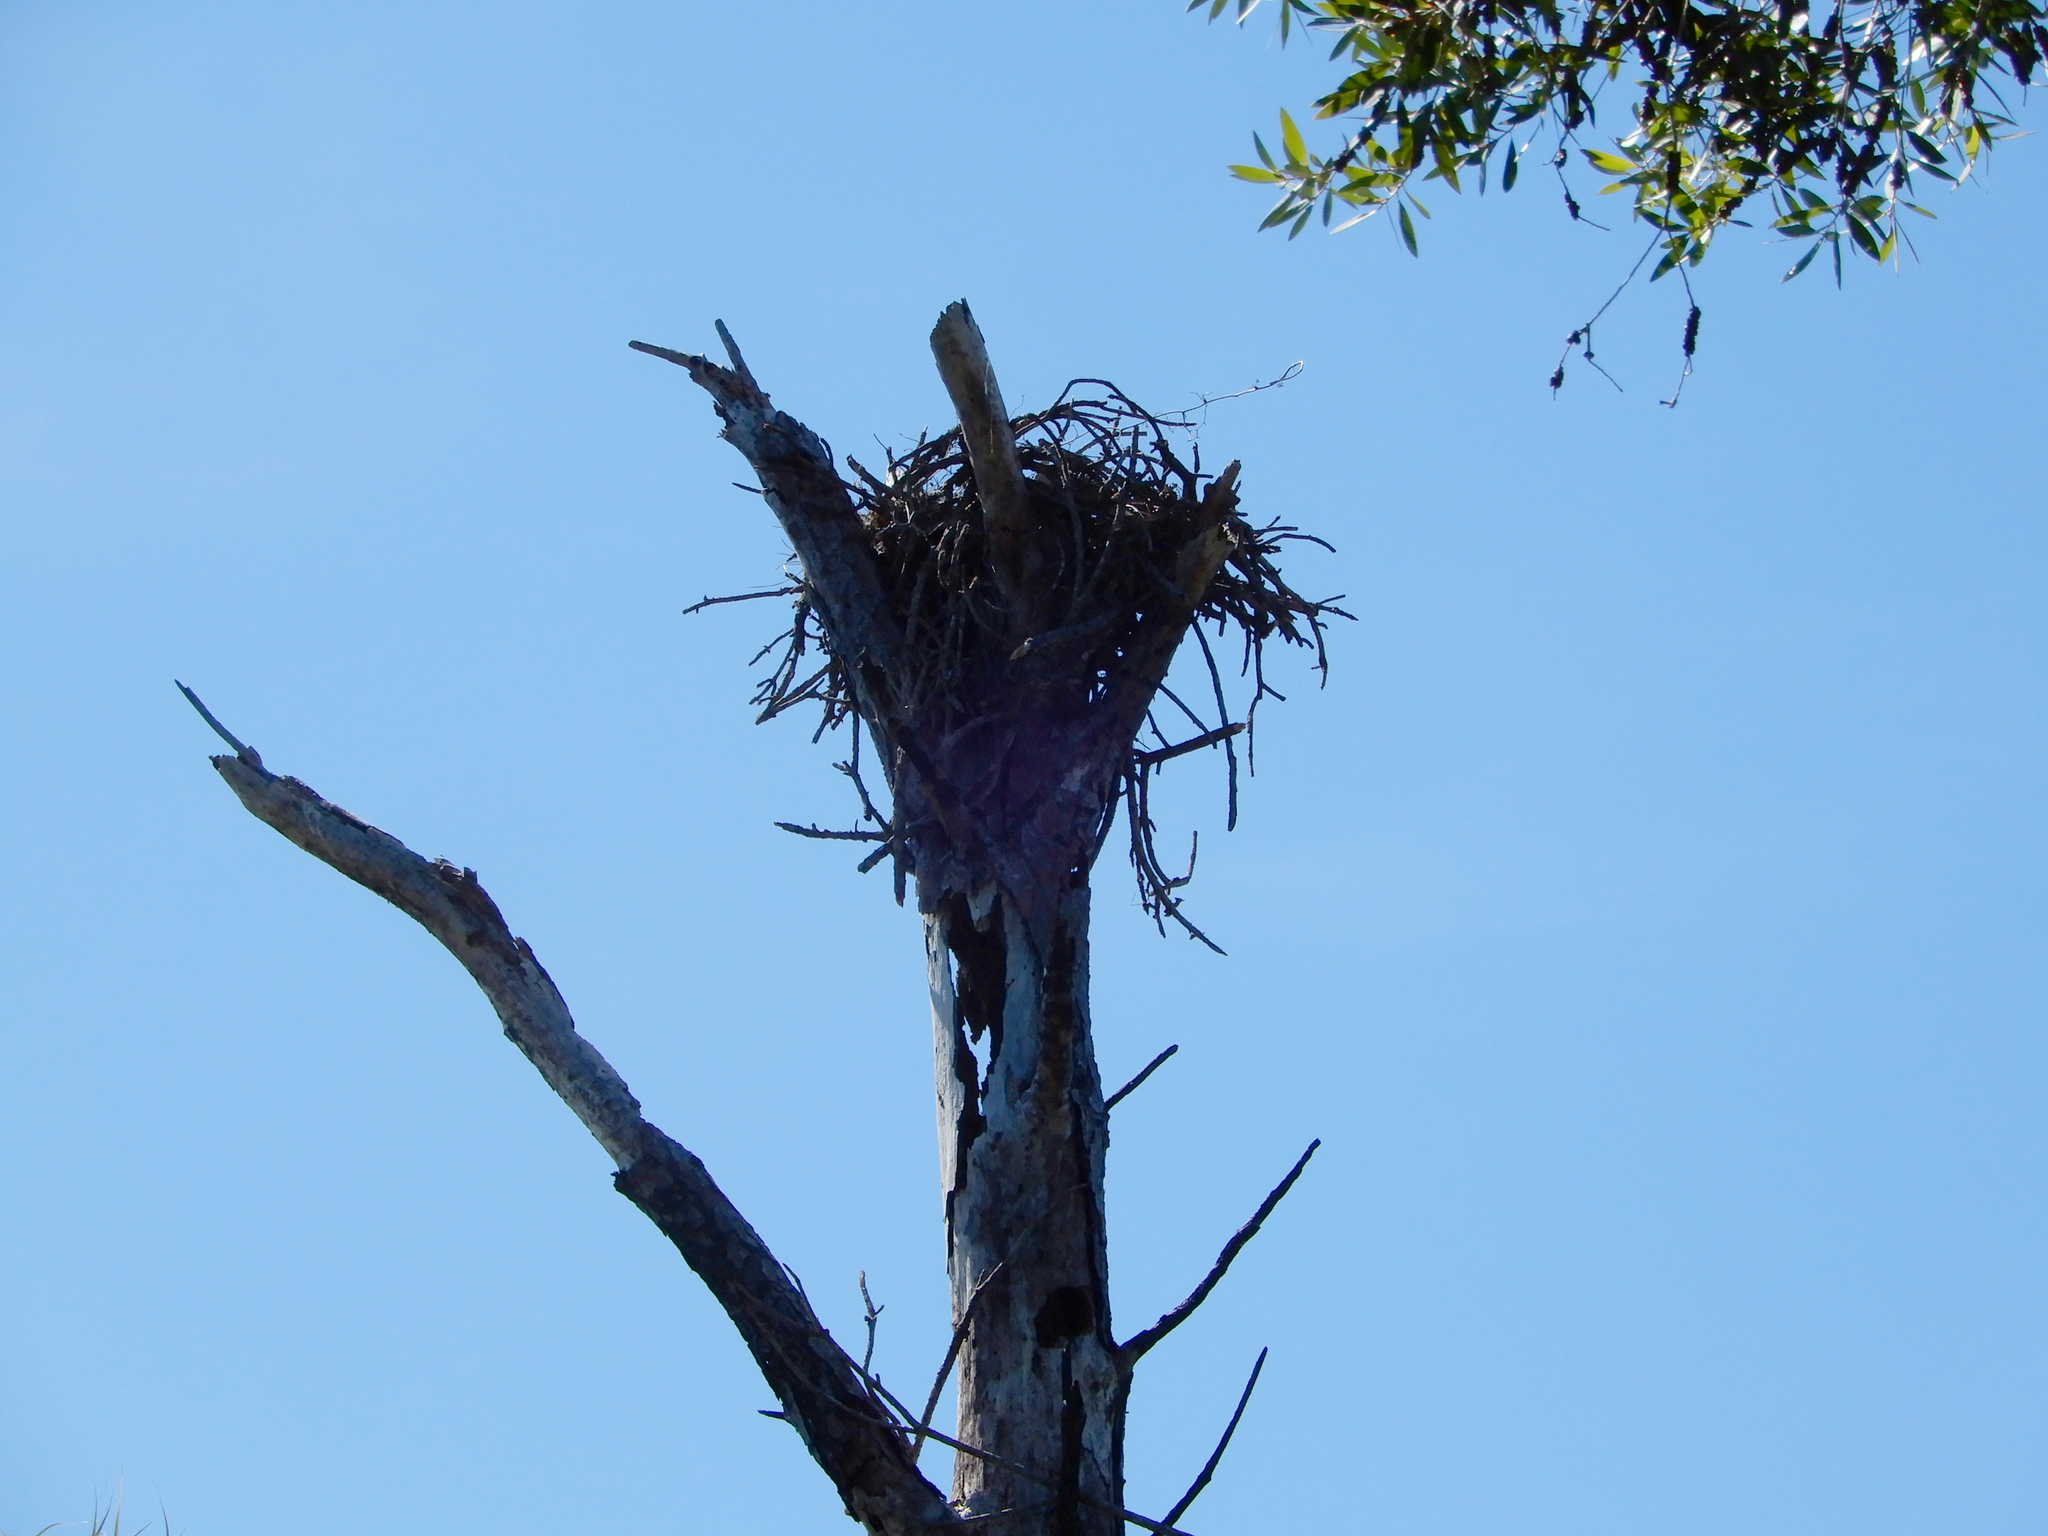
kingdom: Animalia
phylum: Chordata
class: Aves
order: Accipitriformes
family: Pandionidae
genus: Pandion
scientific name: Pandion haliaetus
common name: Osprey
